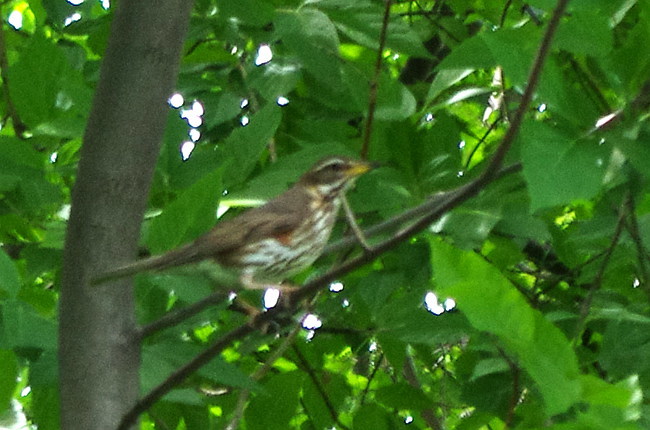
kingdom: Animalia
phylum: Chordata
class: Aves
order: Passeriformes
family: Turdidae
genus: Turdus
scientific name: Turdus iliacus
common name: Redwing
